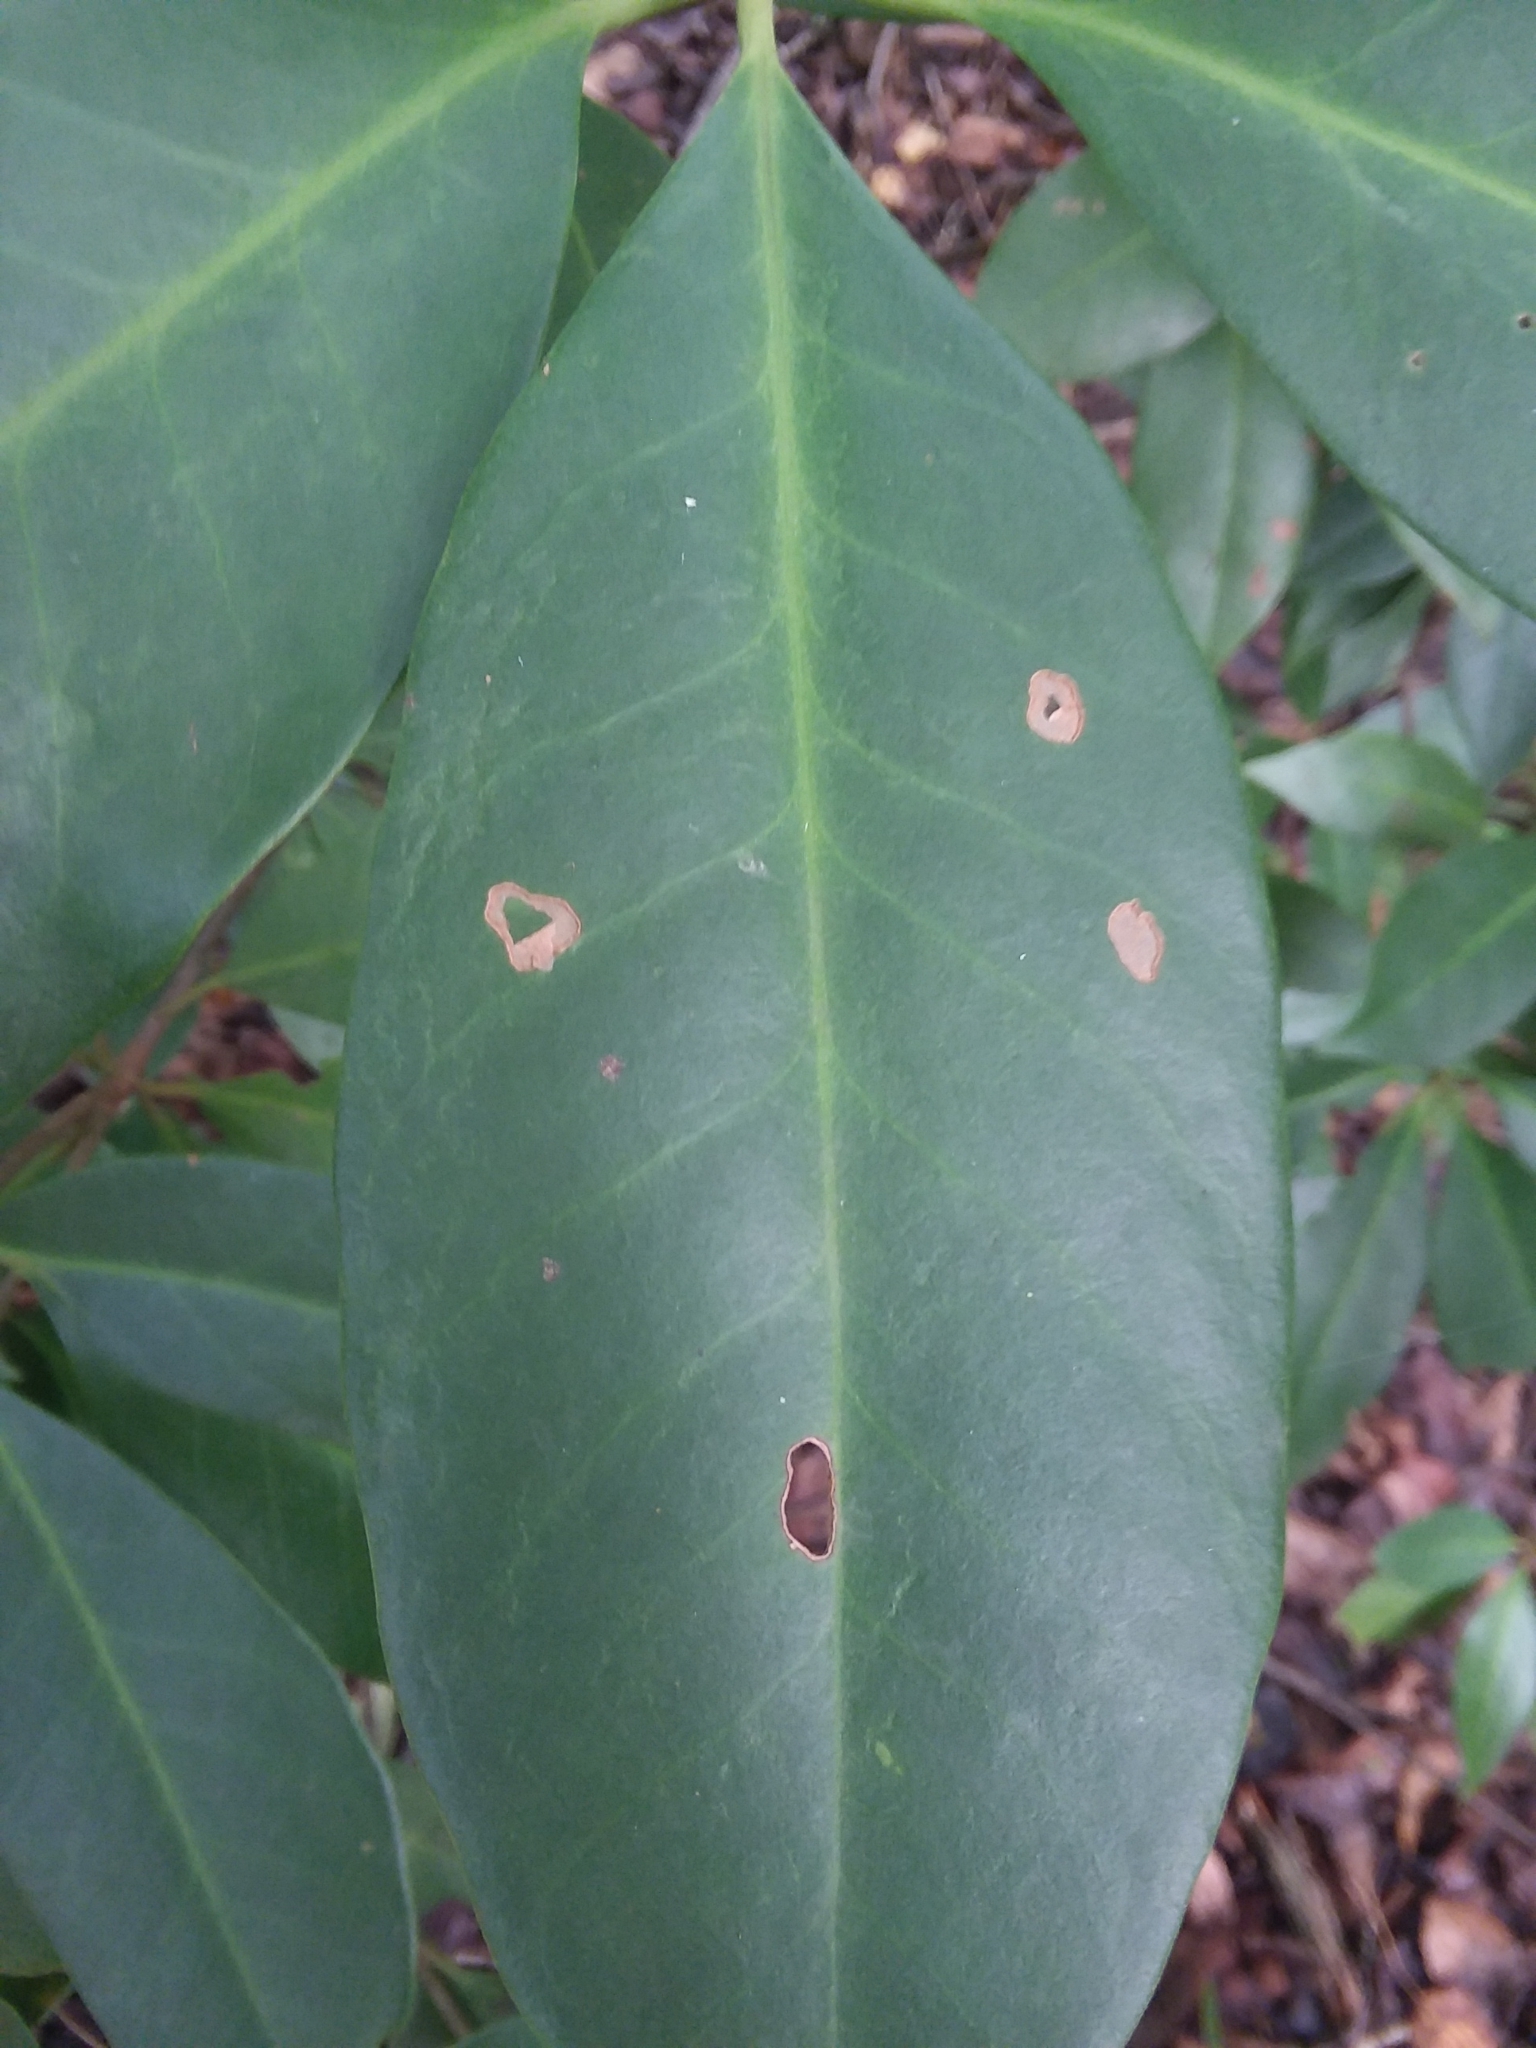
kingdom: Plantae
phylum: Tracheophyta
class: Magnoliopsida
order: Austrobaileyales
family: Schisandraceae
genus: Illicium
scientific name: Illicium floridanum
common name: Florida anisetree
